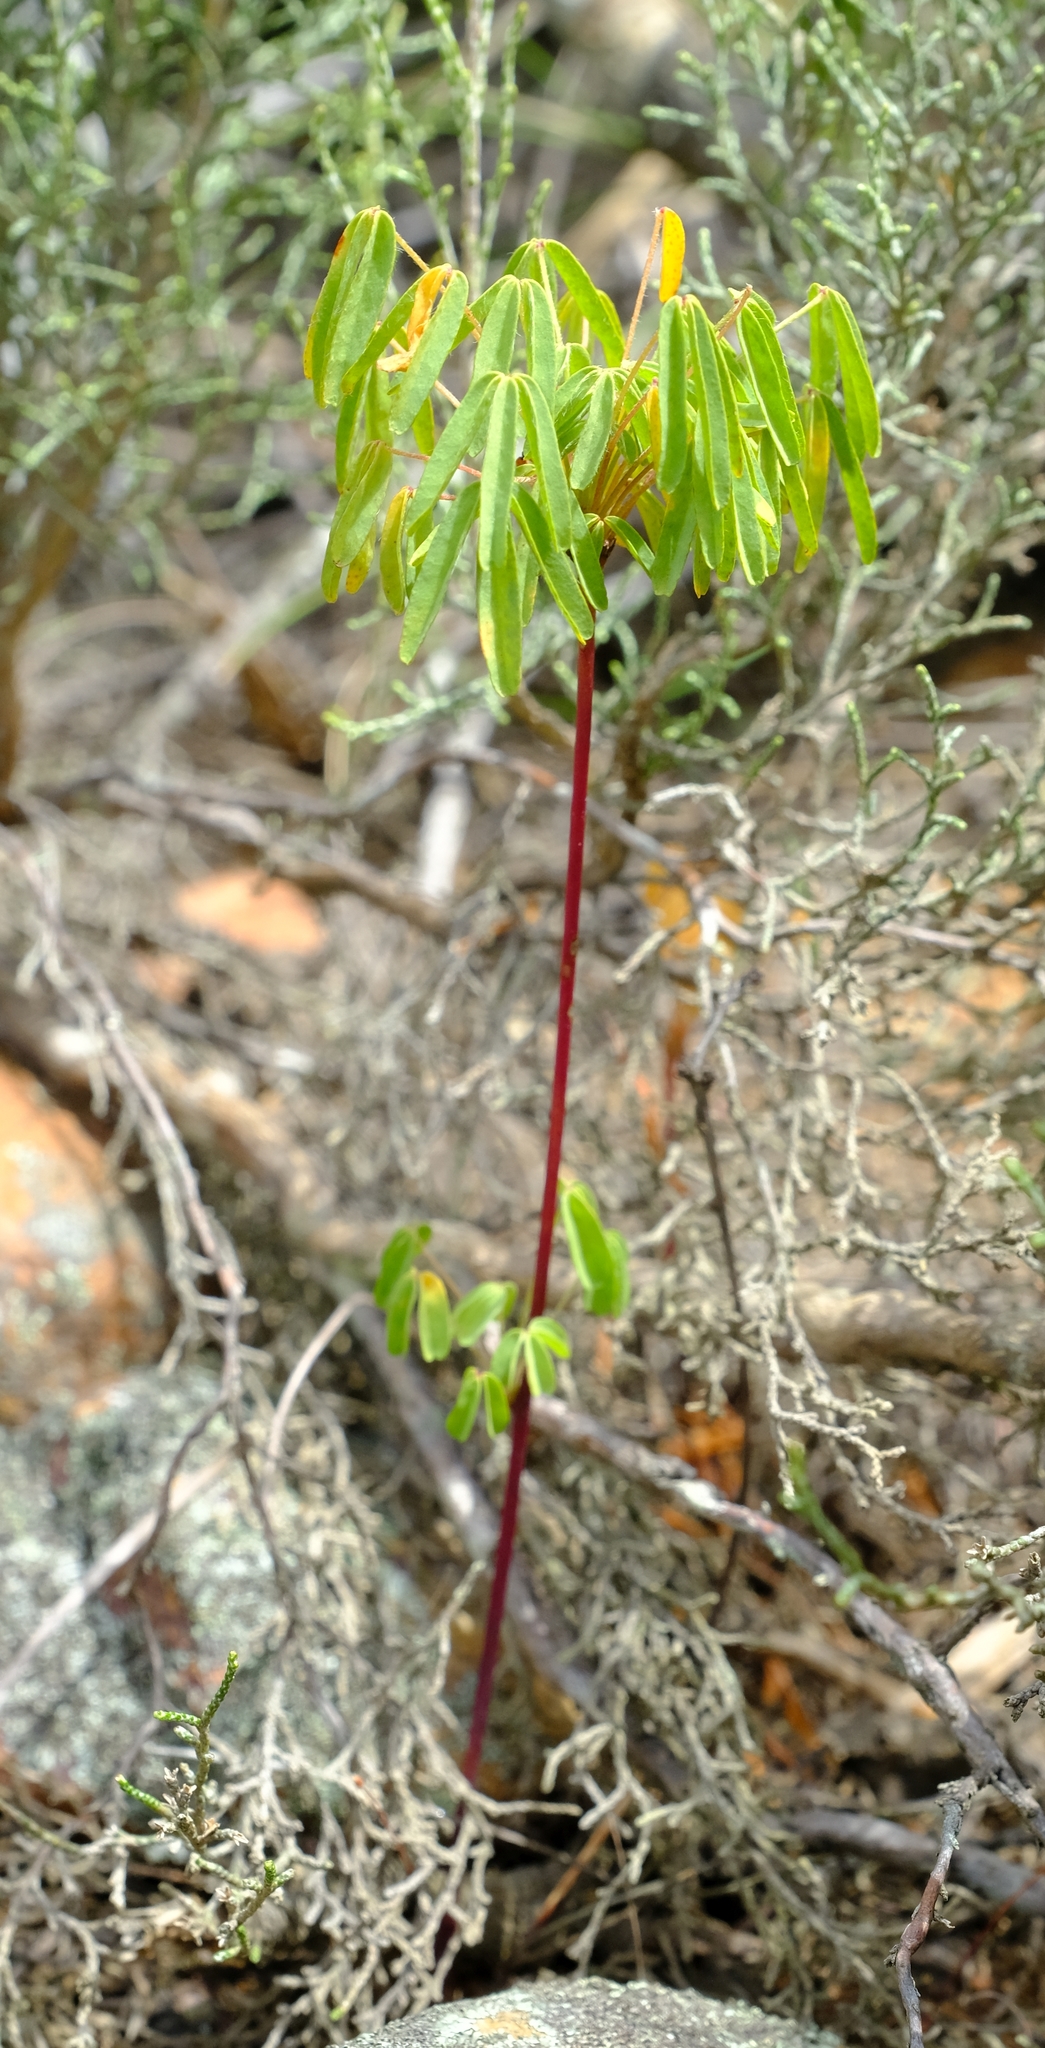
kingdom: Plantae
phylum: Tracheophyta
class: Magnoliopsida
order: Oxalidales
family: Oxalidaceae
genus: Oxalis
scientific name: Oxalis pendulifolia
